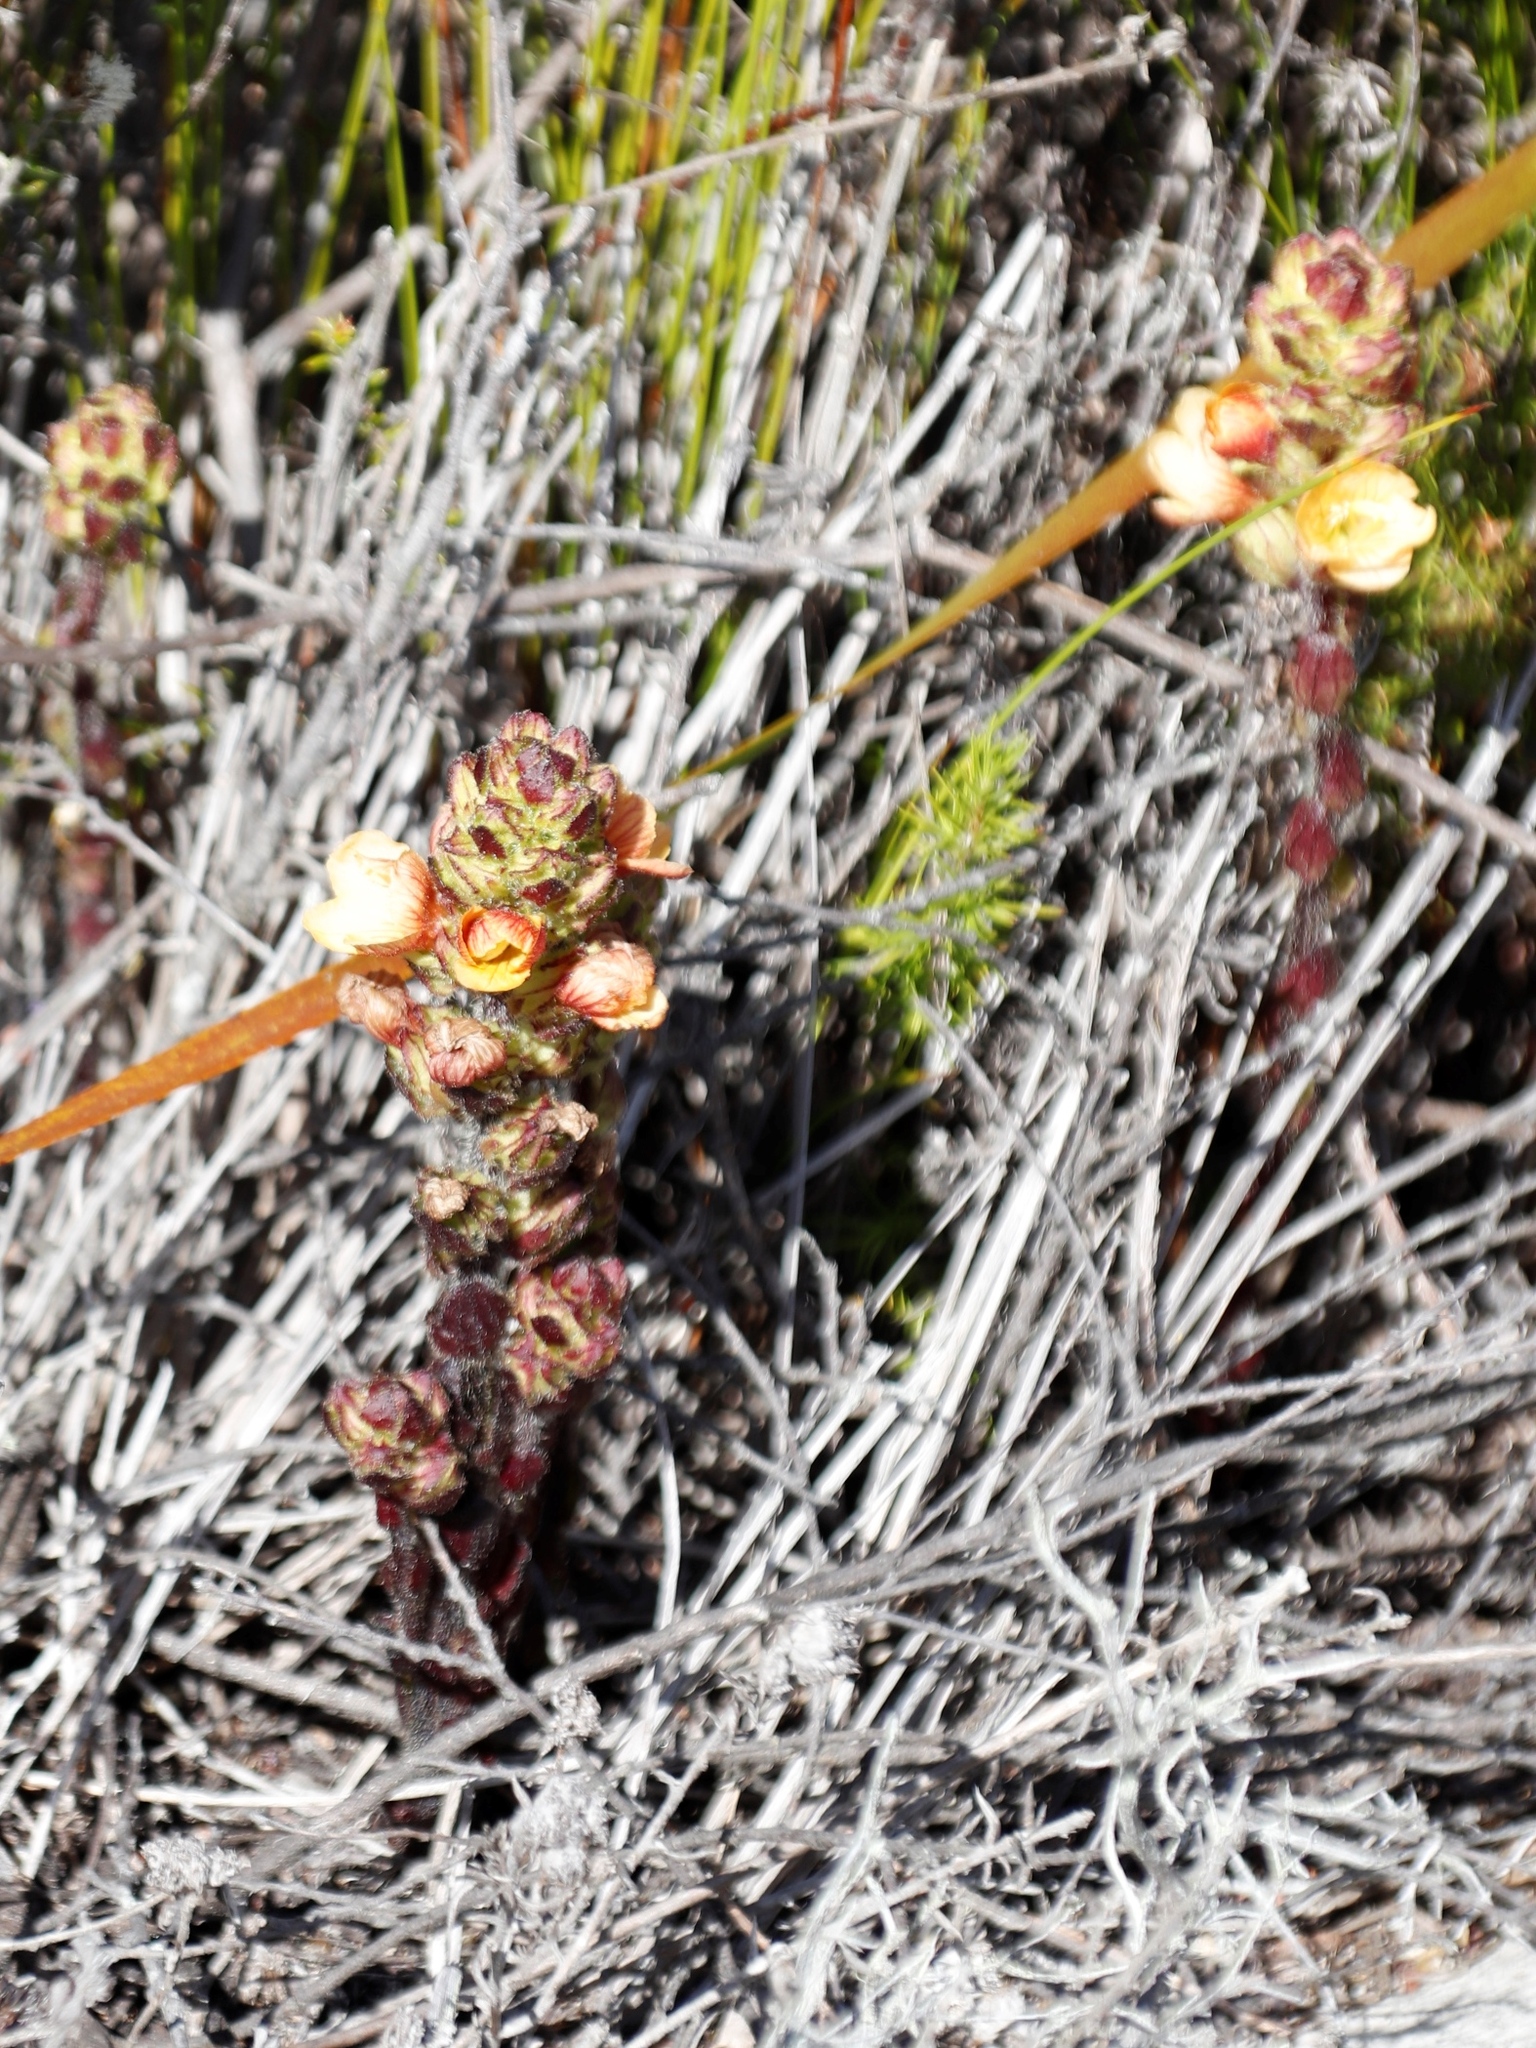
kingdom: Plantae
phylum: Tracheophyta
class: Magnoliopsida
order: Lamiales
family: Orobanchaceae
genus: Alectra
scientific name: Alectra lurida
